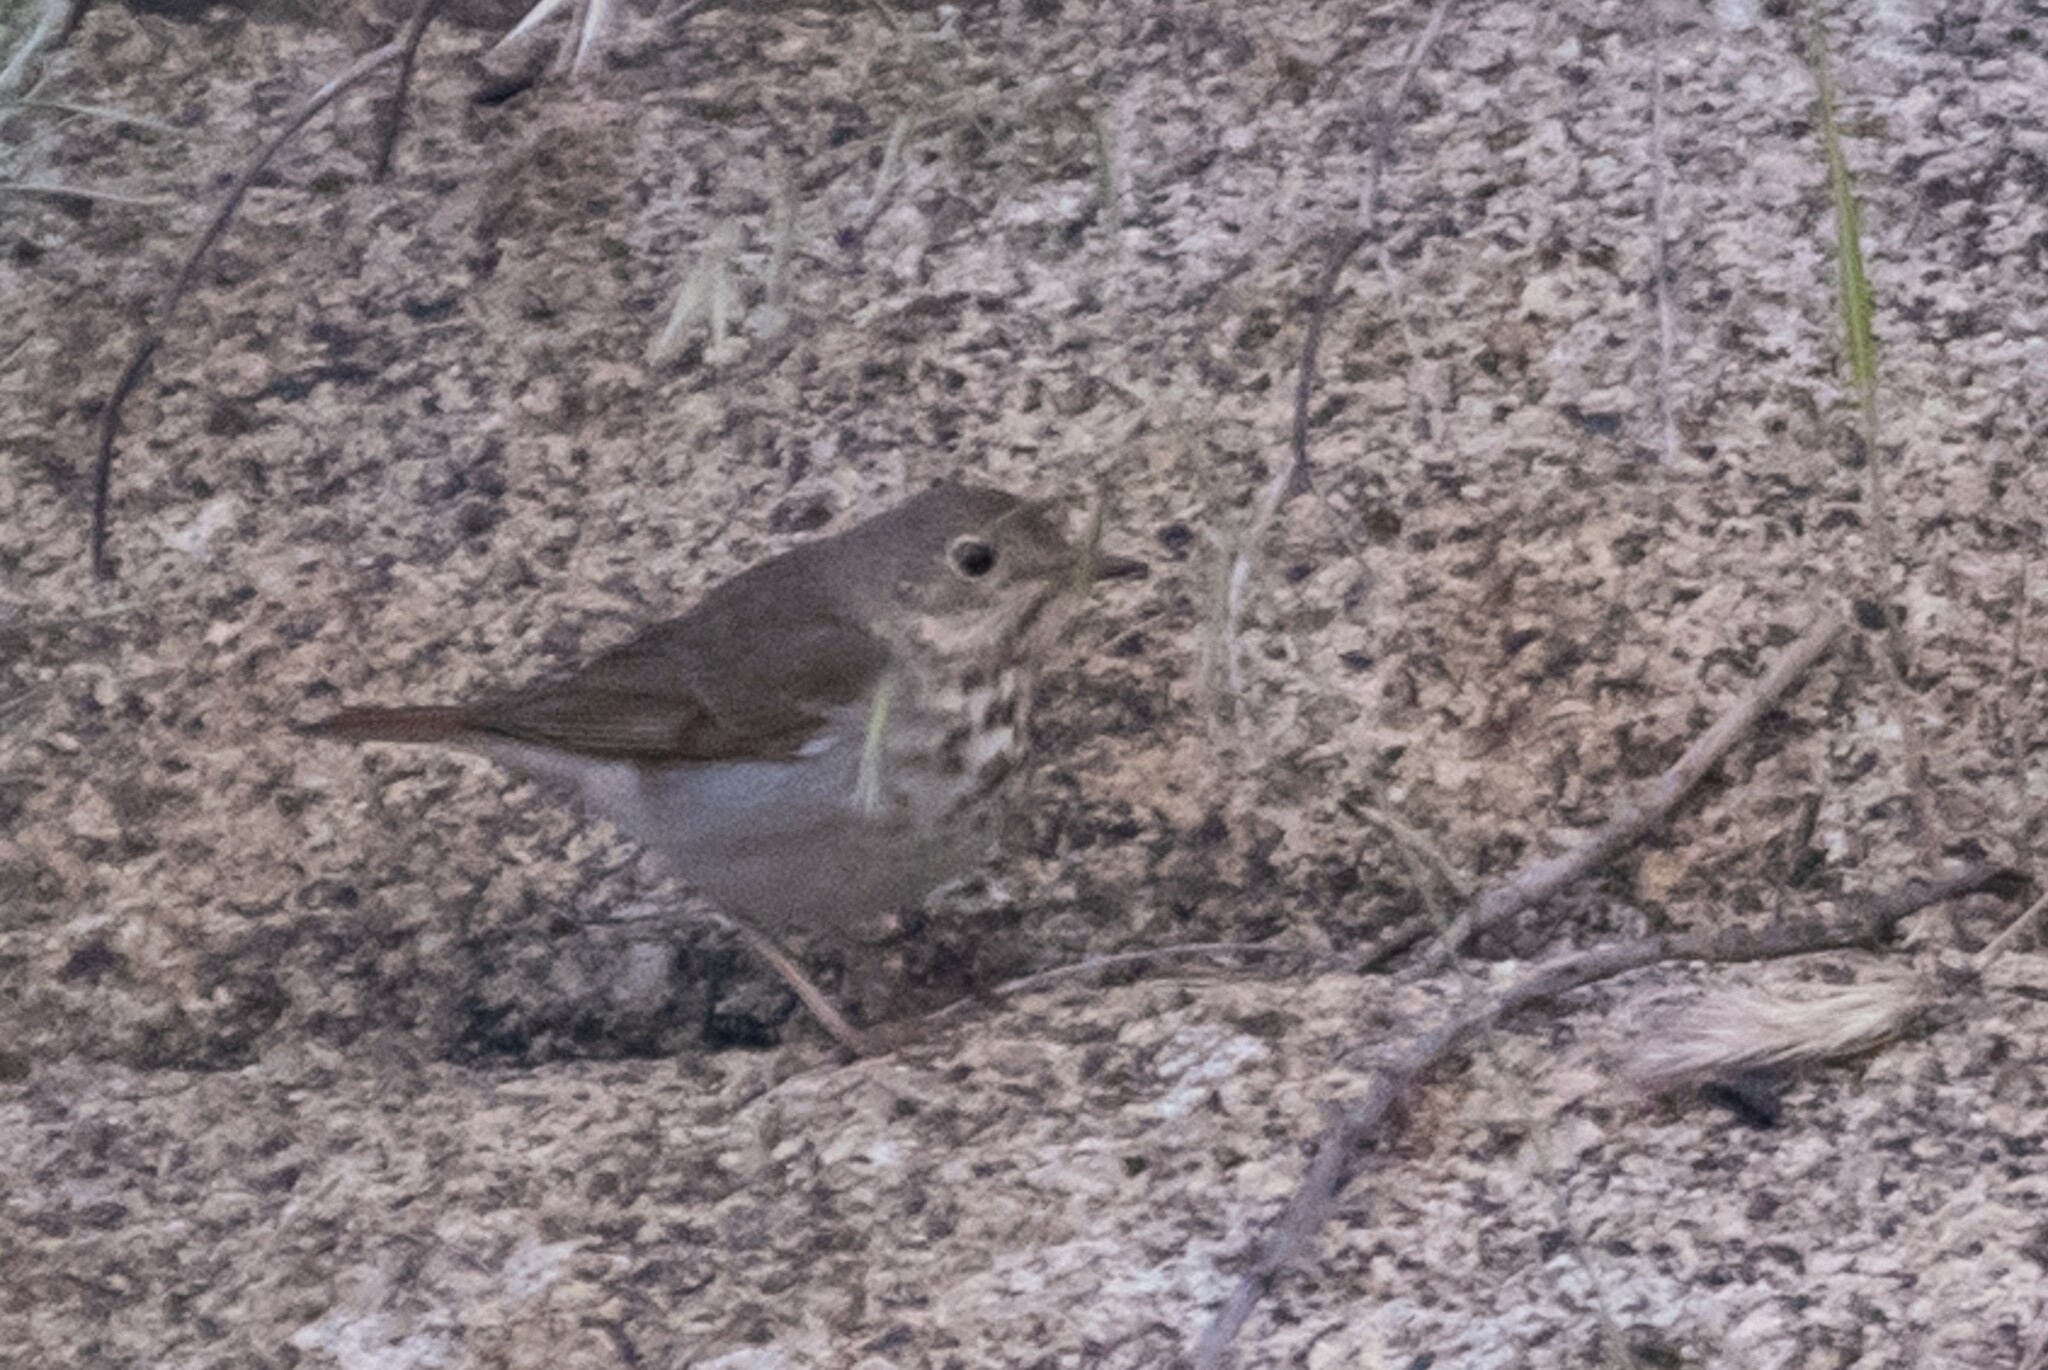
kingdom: Animalia
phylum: Chordata
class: Aves
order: Passeriformes
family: Turdidae
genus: Catharus
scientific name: Catharus guttatus
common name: Hermit thrush
